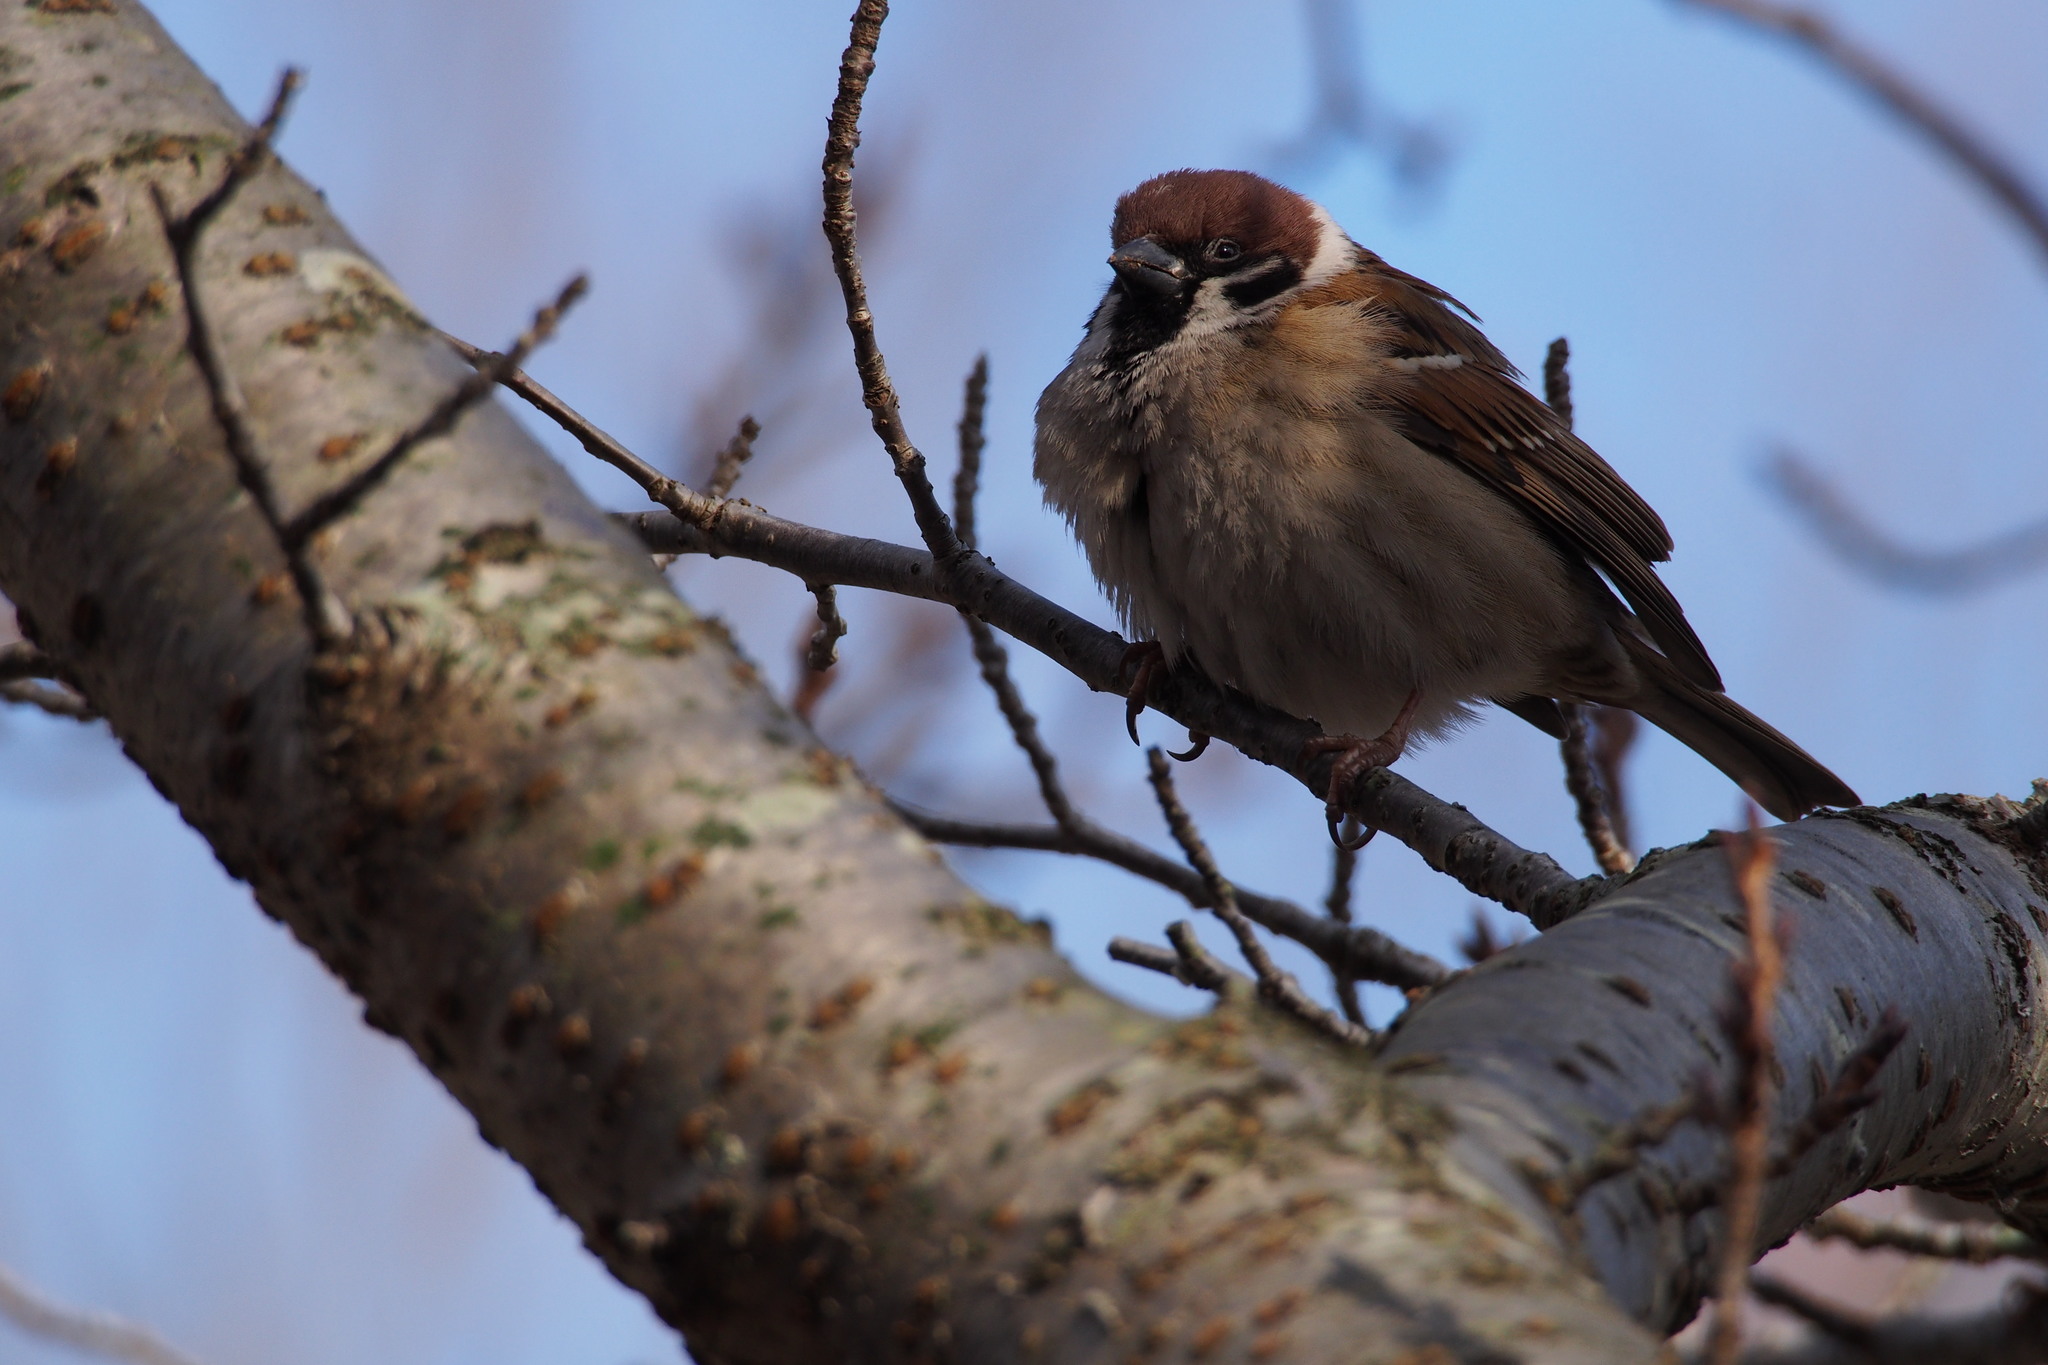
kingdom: Animalia
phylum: Chordata
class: Aves
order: Passeriformes
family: Passeridae
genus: Passer
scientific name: Passer montanus
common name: Eurasian tree sparrow
